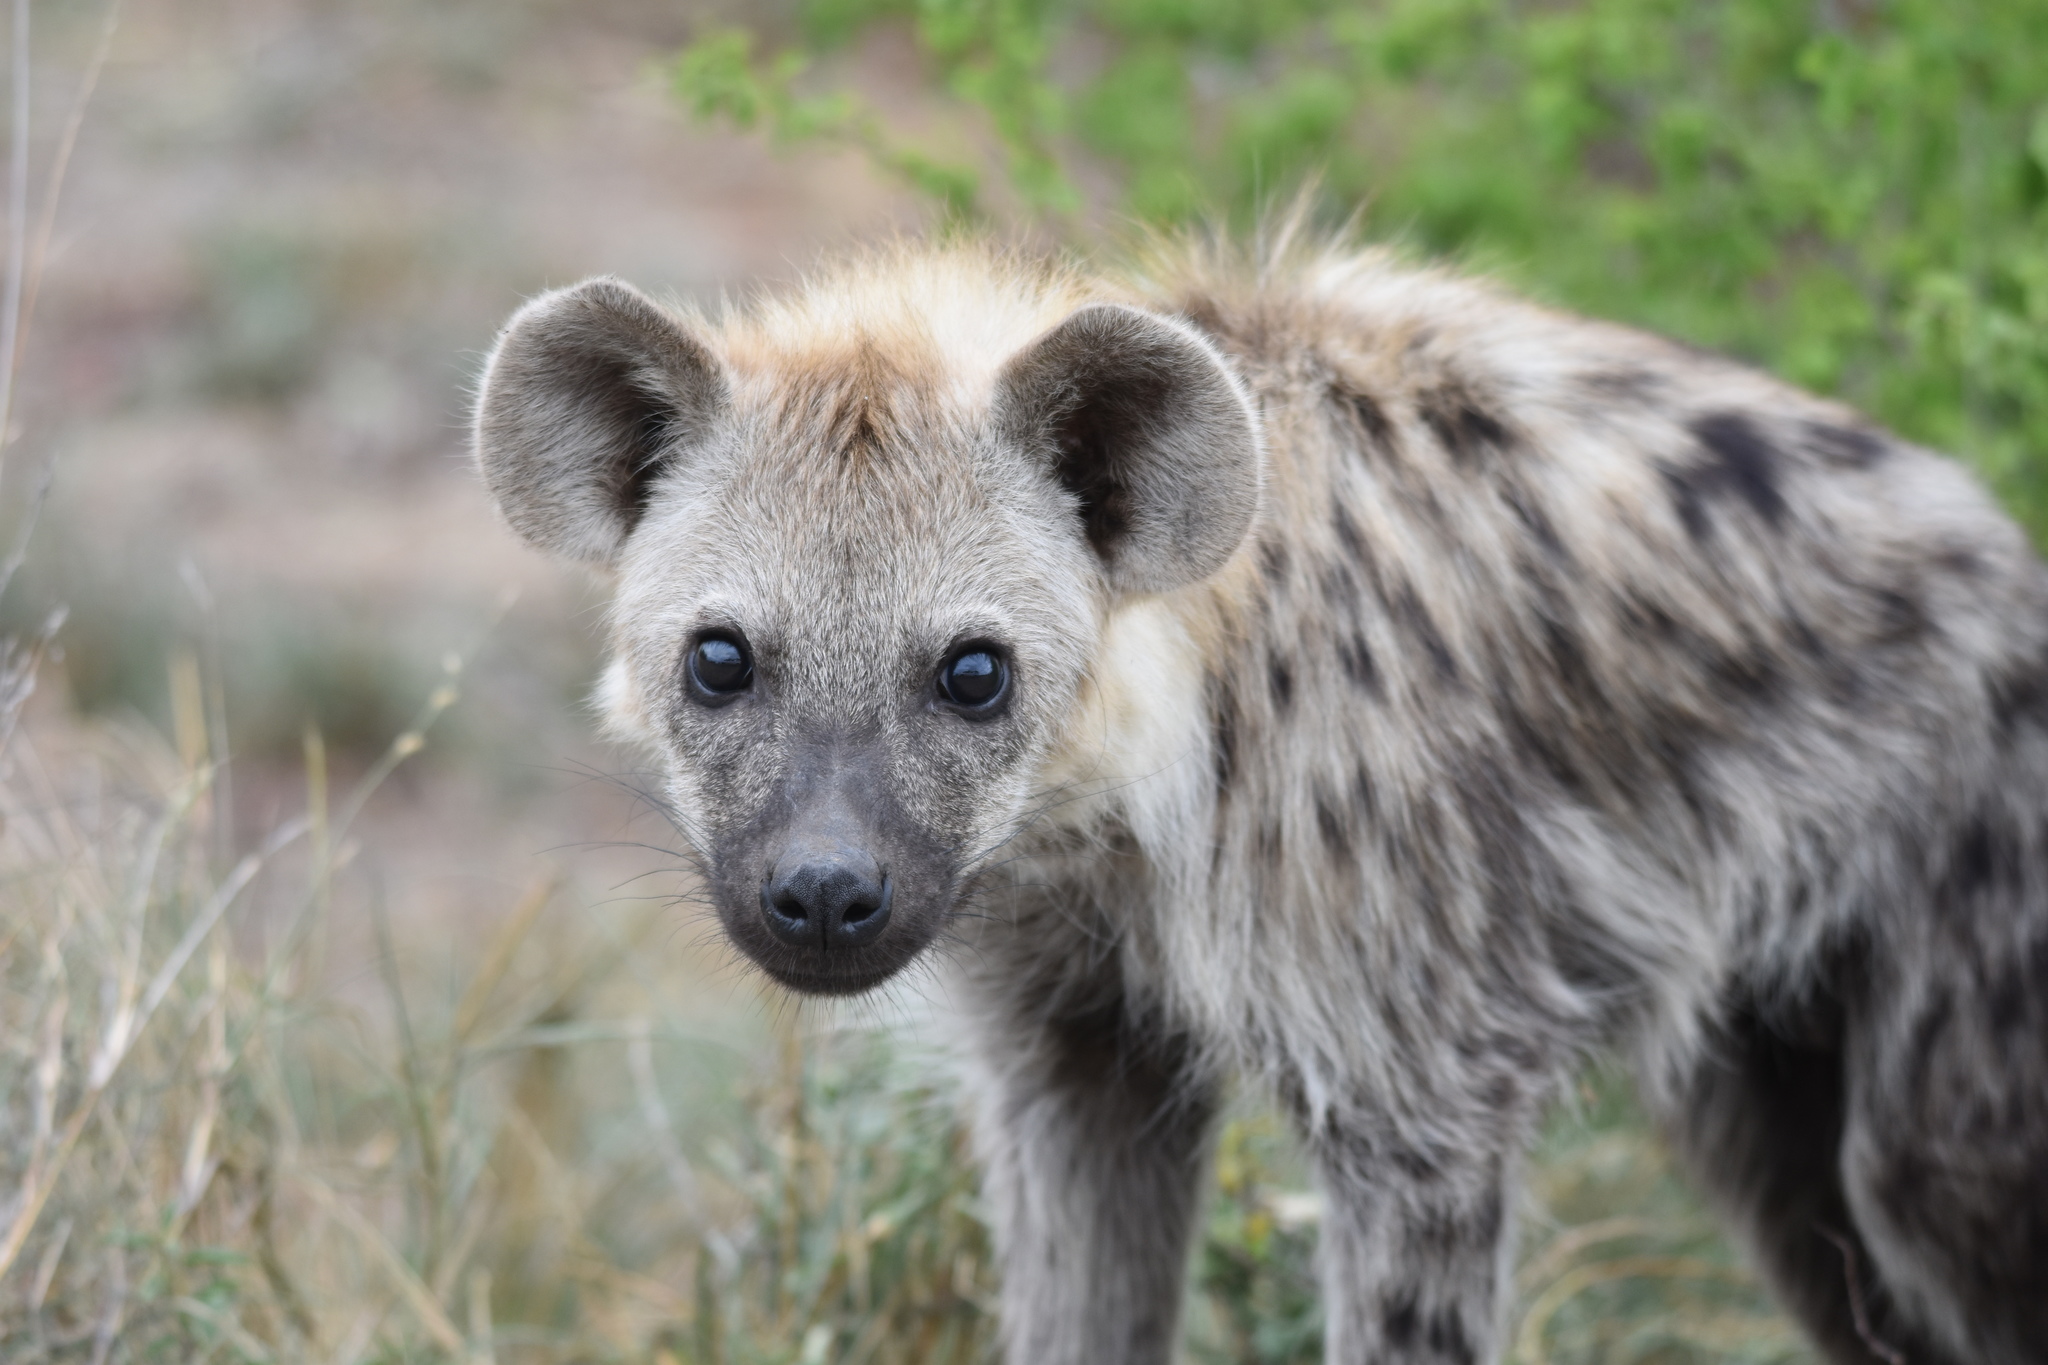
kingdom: Animalia
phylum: Chordata
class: Mammalia
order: Carnivora
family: Hyaenidae
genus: Crocuta
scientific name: Crocuta crocuta
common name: Spotted hyaena
